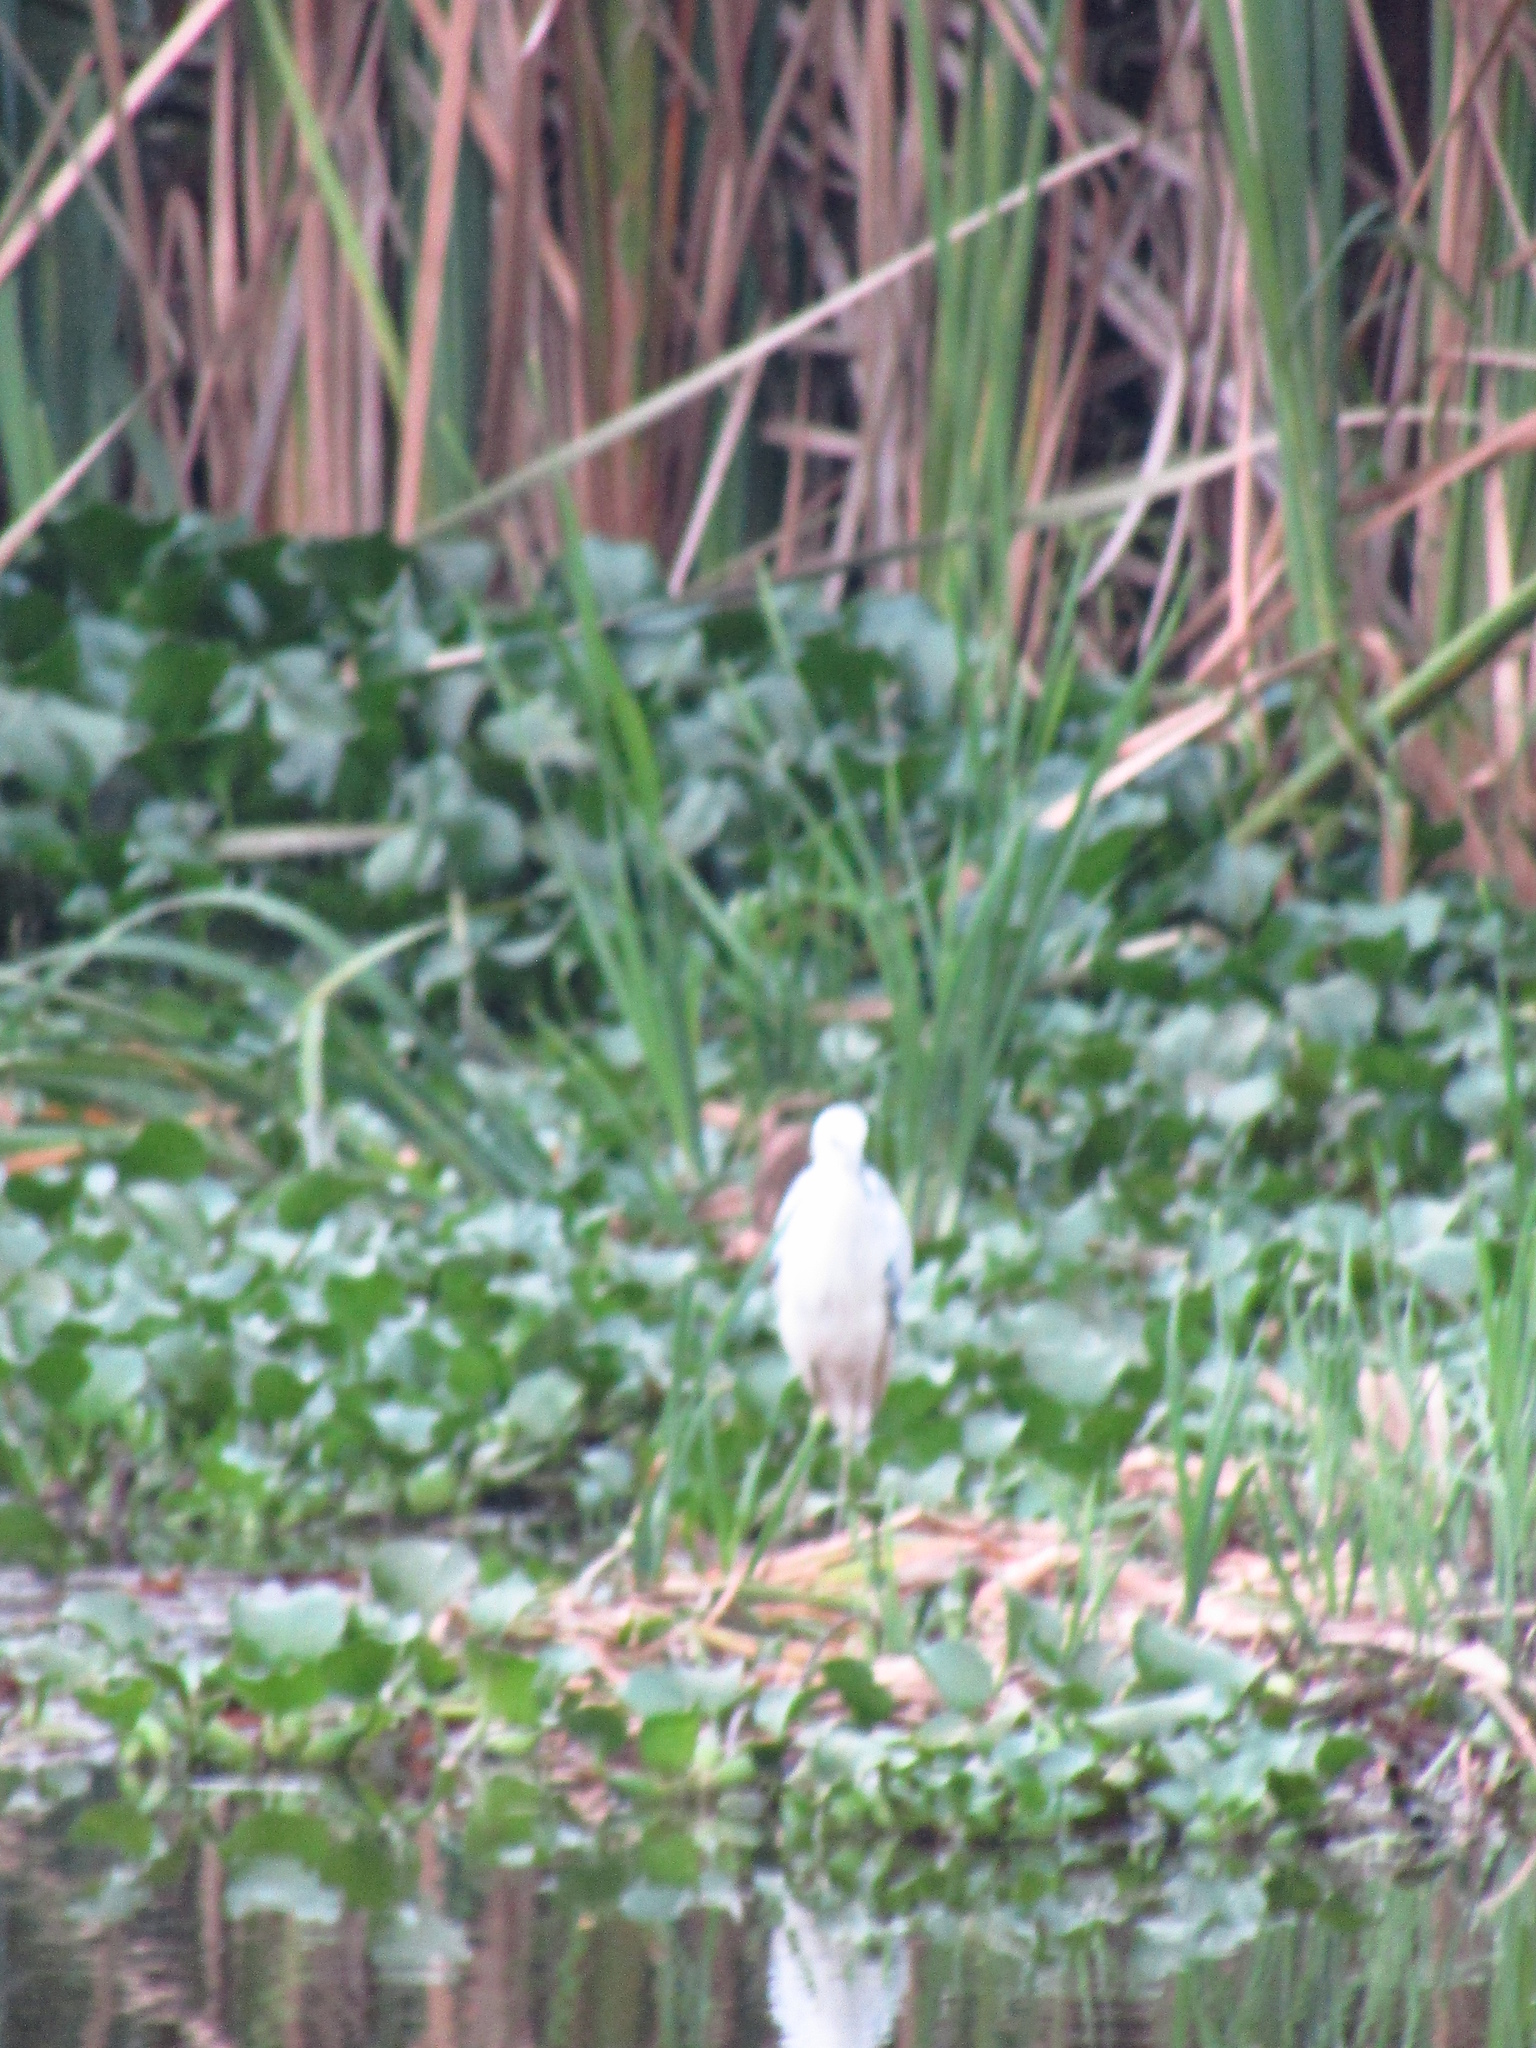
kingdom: Animalia
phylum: Chordata
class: Aves
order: Pelecaniformes
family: Ardeidae
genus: Egretta
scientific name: Egretta caerulea
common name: Little blue heron
